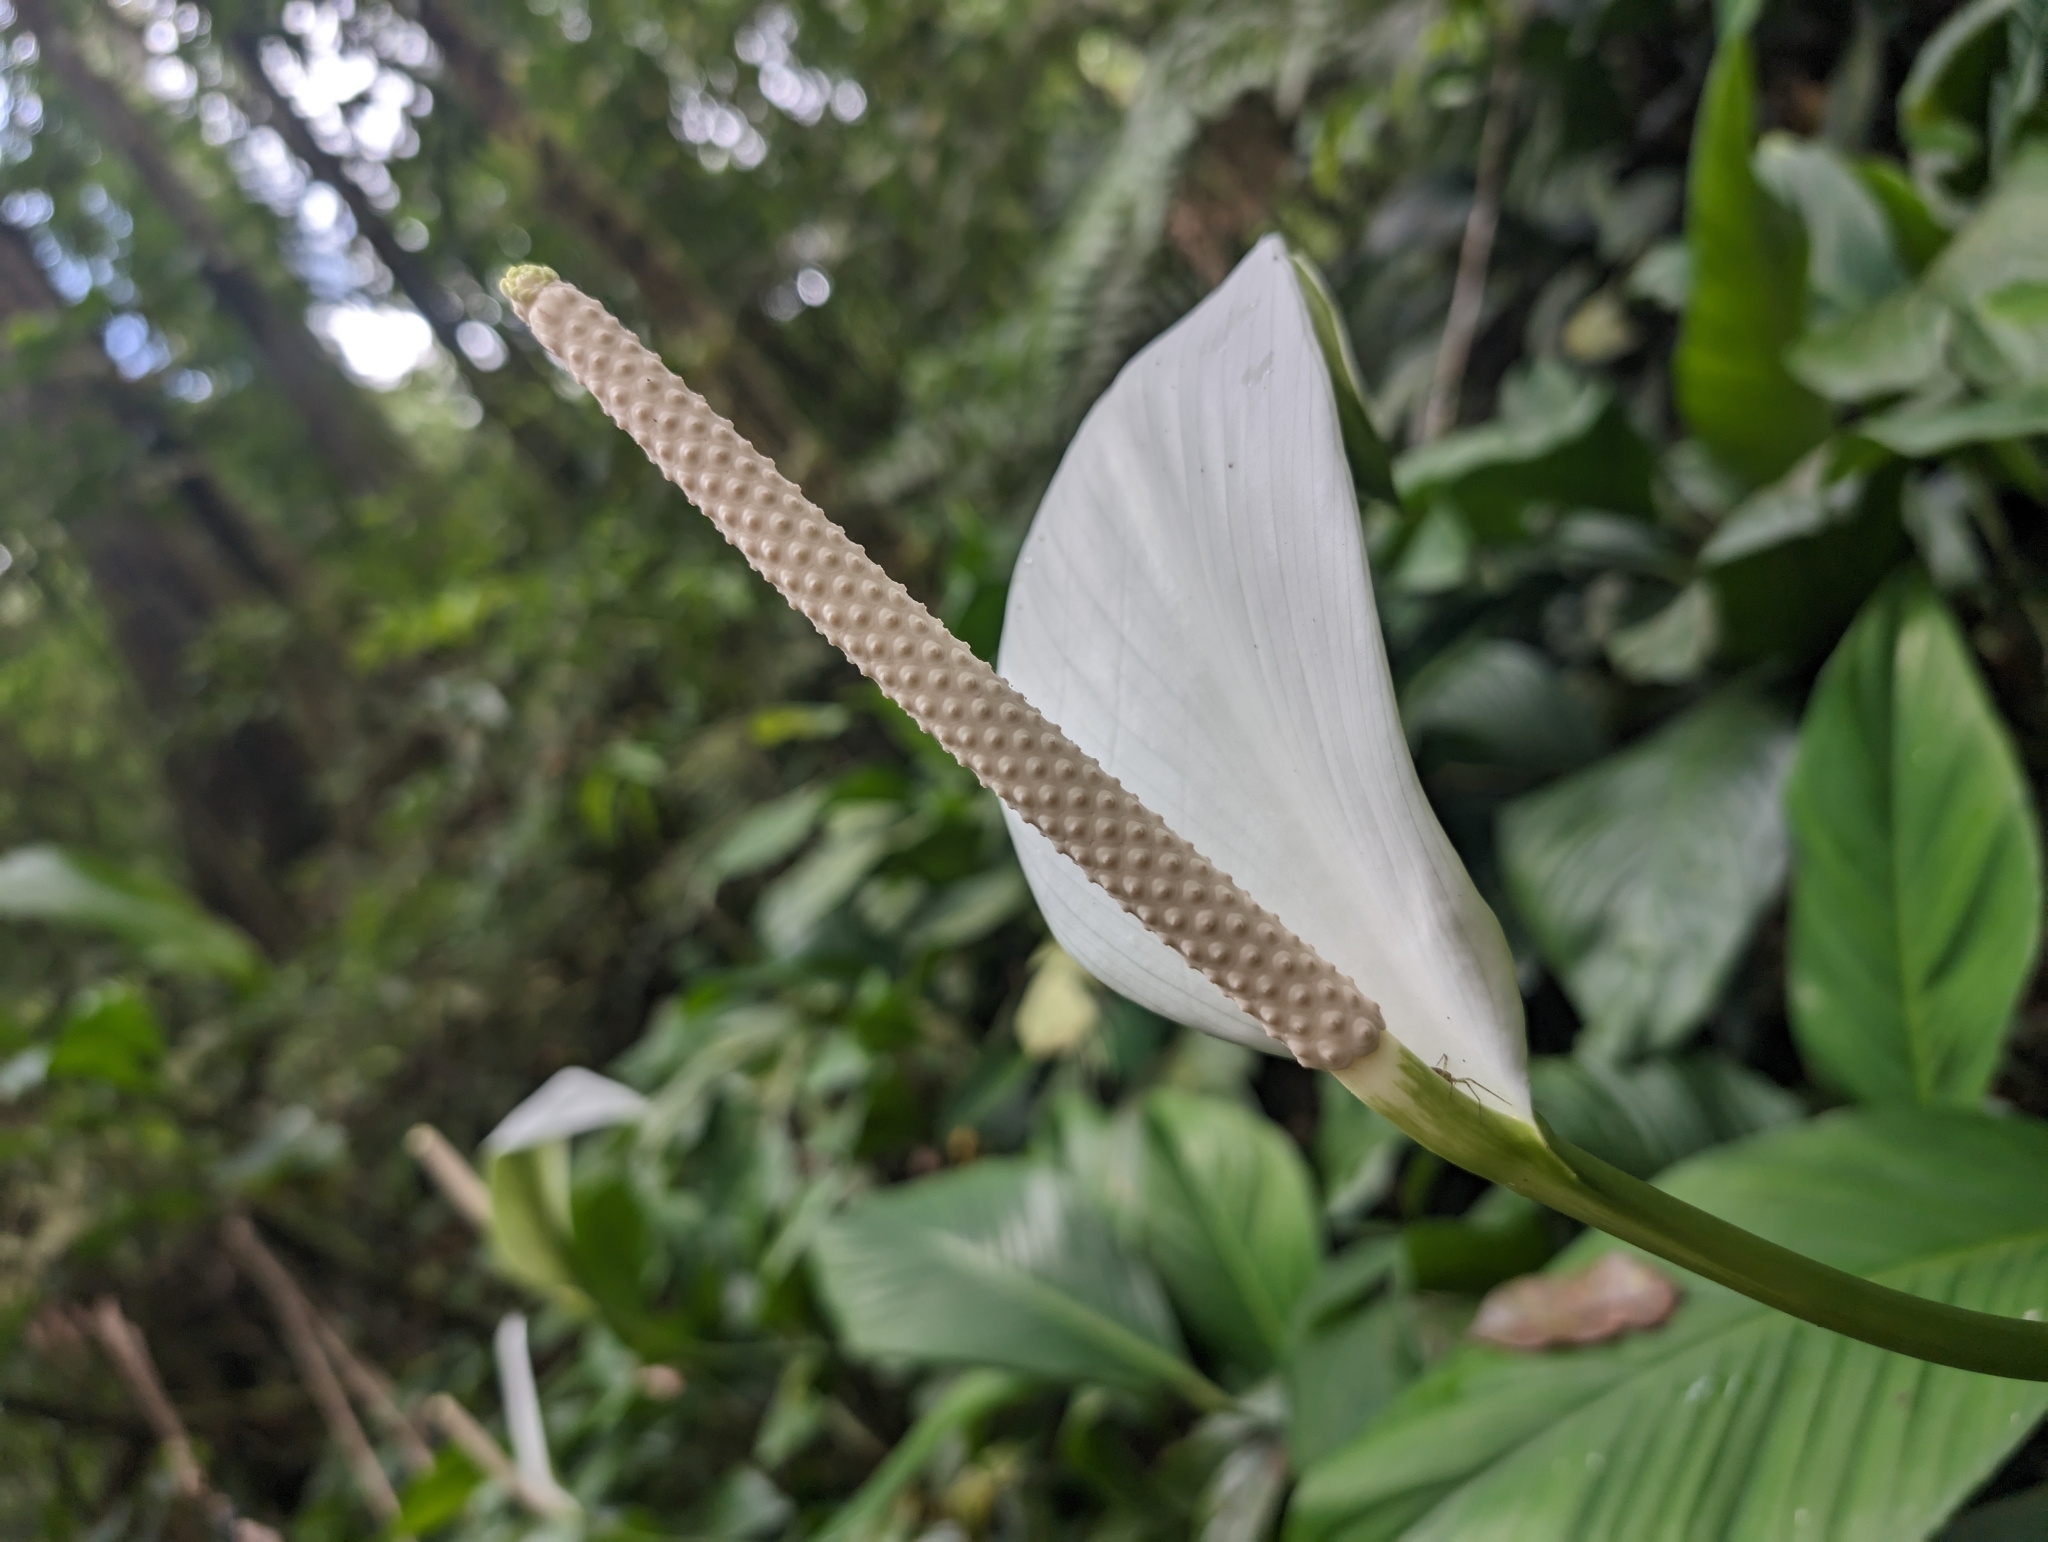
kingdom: Plantae
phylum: Tracheophyta
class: Liliopsida
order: Alismatales
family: Araceae
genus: Spathiphyllum
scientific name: Spathiphyllum wallisii
